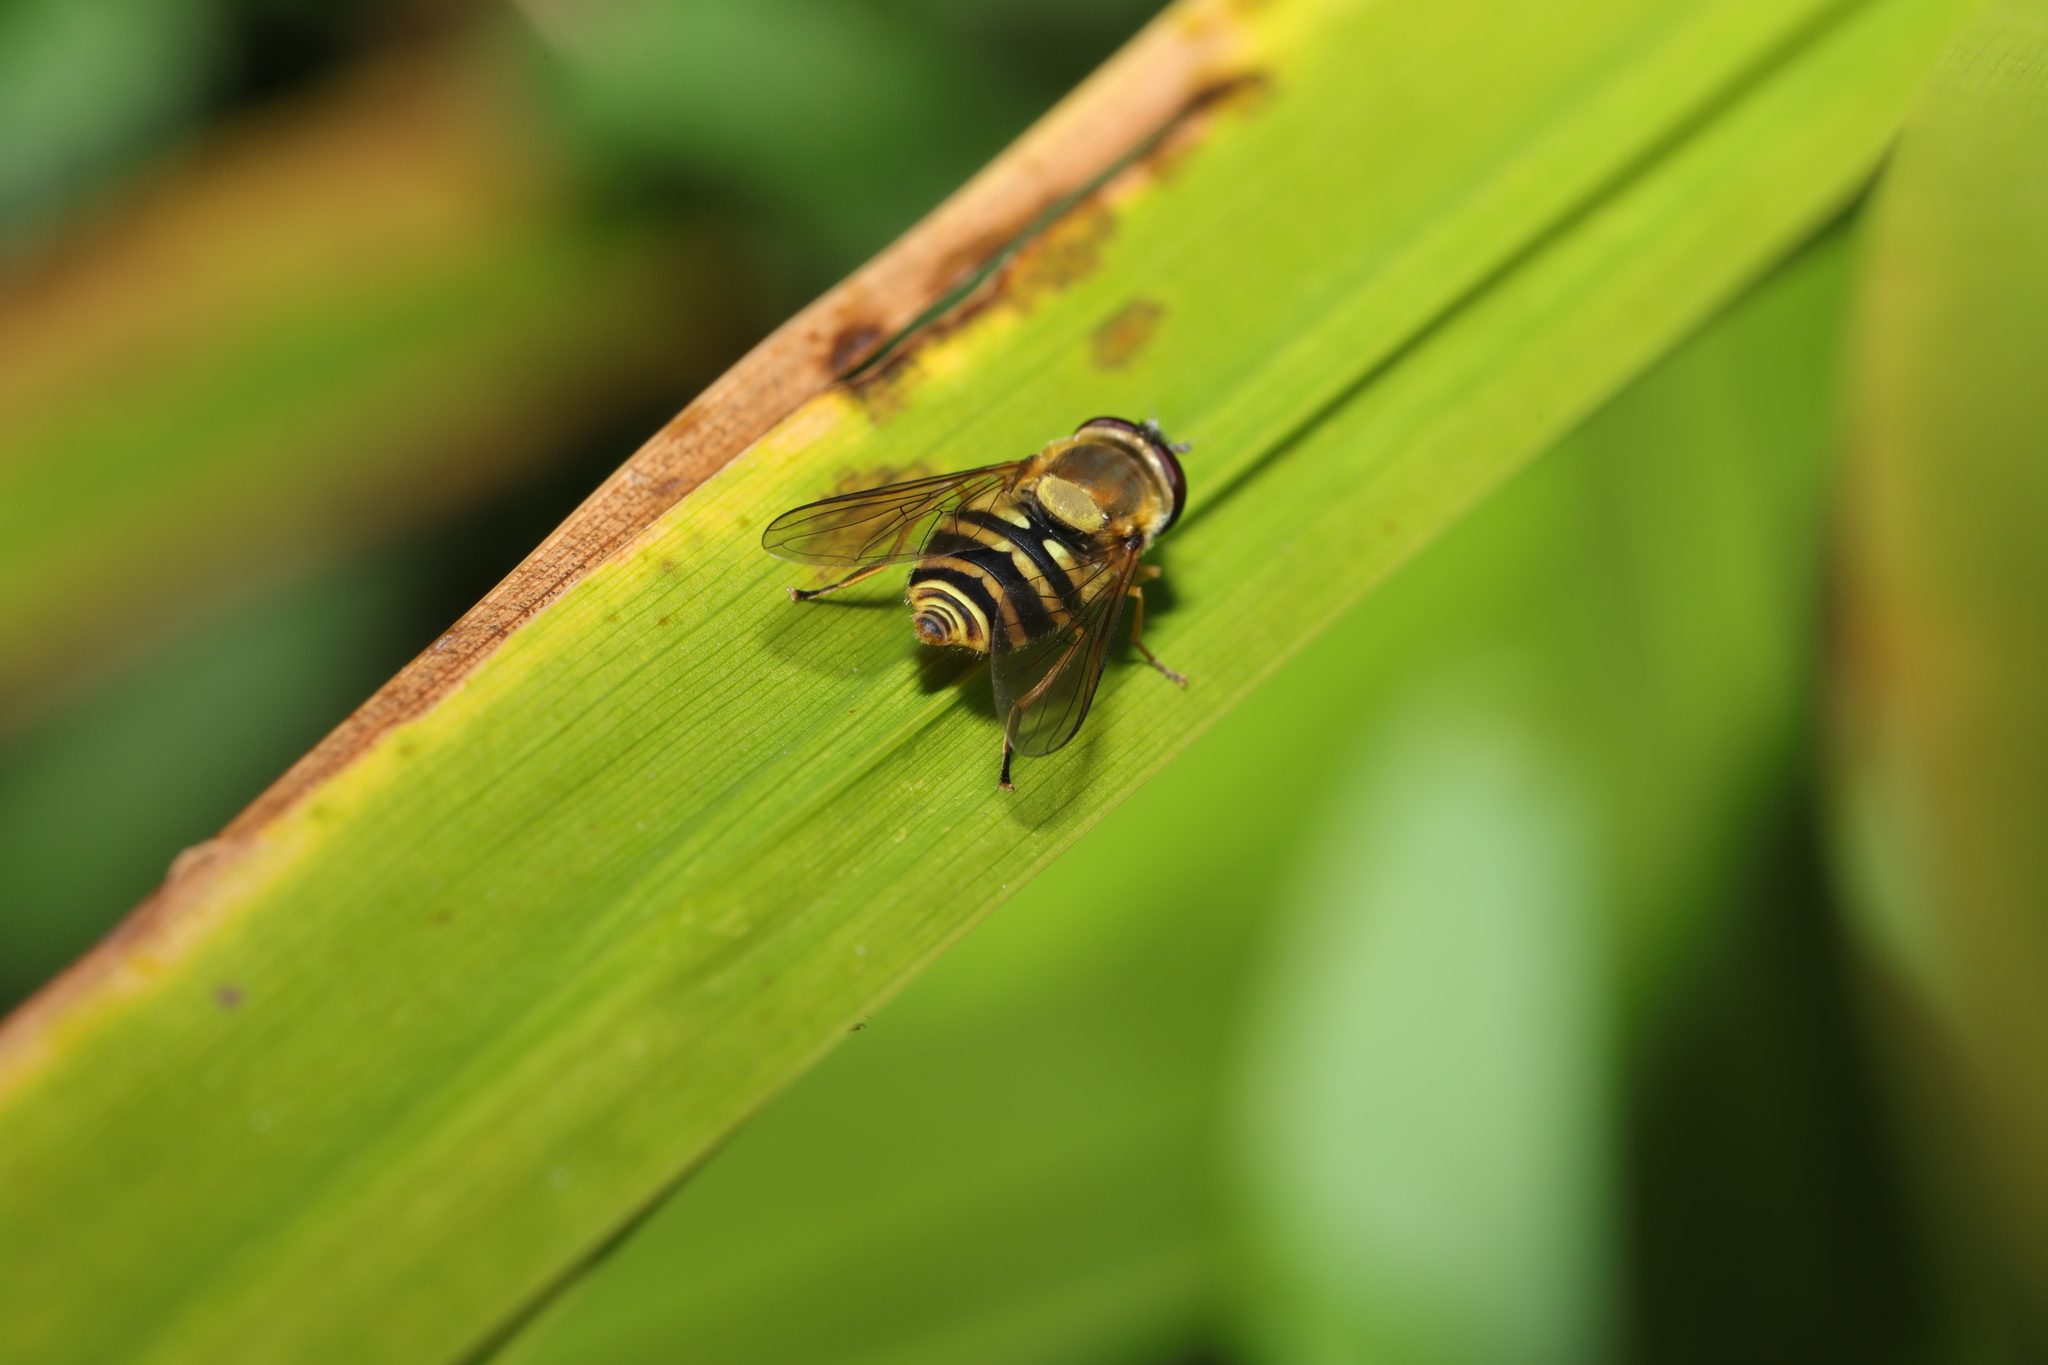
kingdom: Animalia
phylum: Arthropoda
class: Insecta
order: Diptera
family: Syrphidae
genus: Syrphus
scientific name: Syrphus
